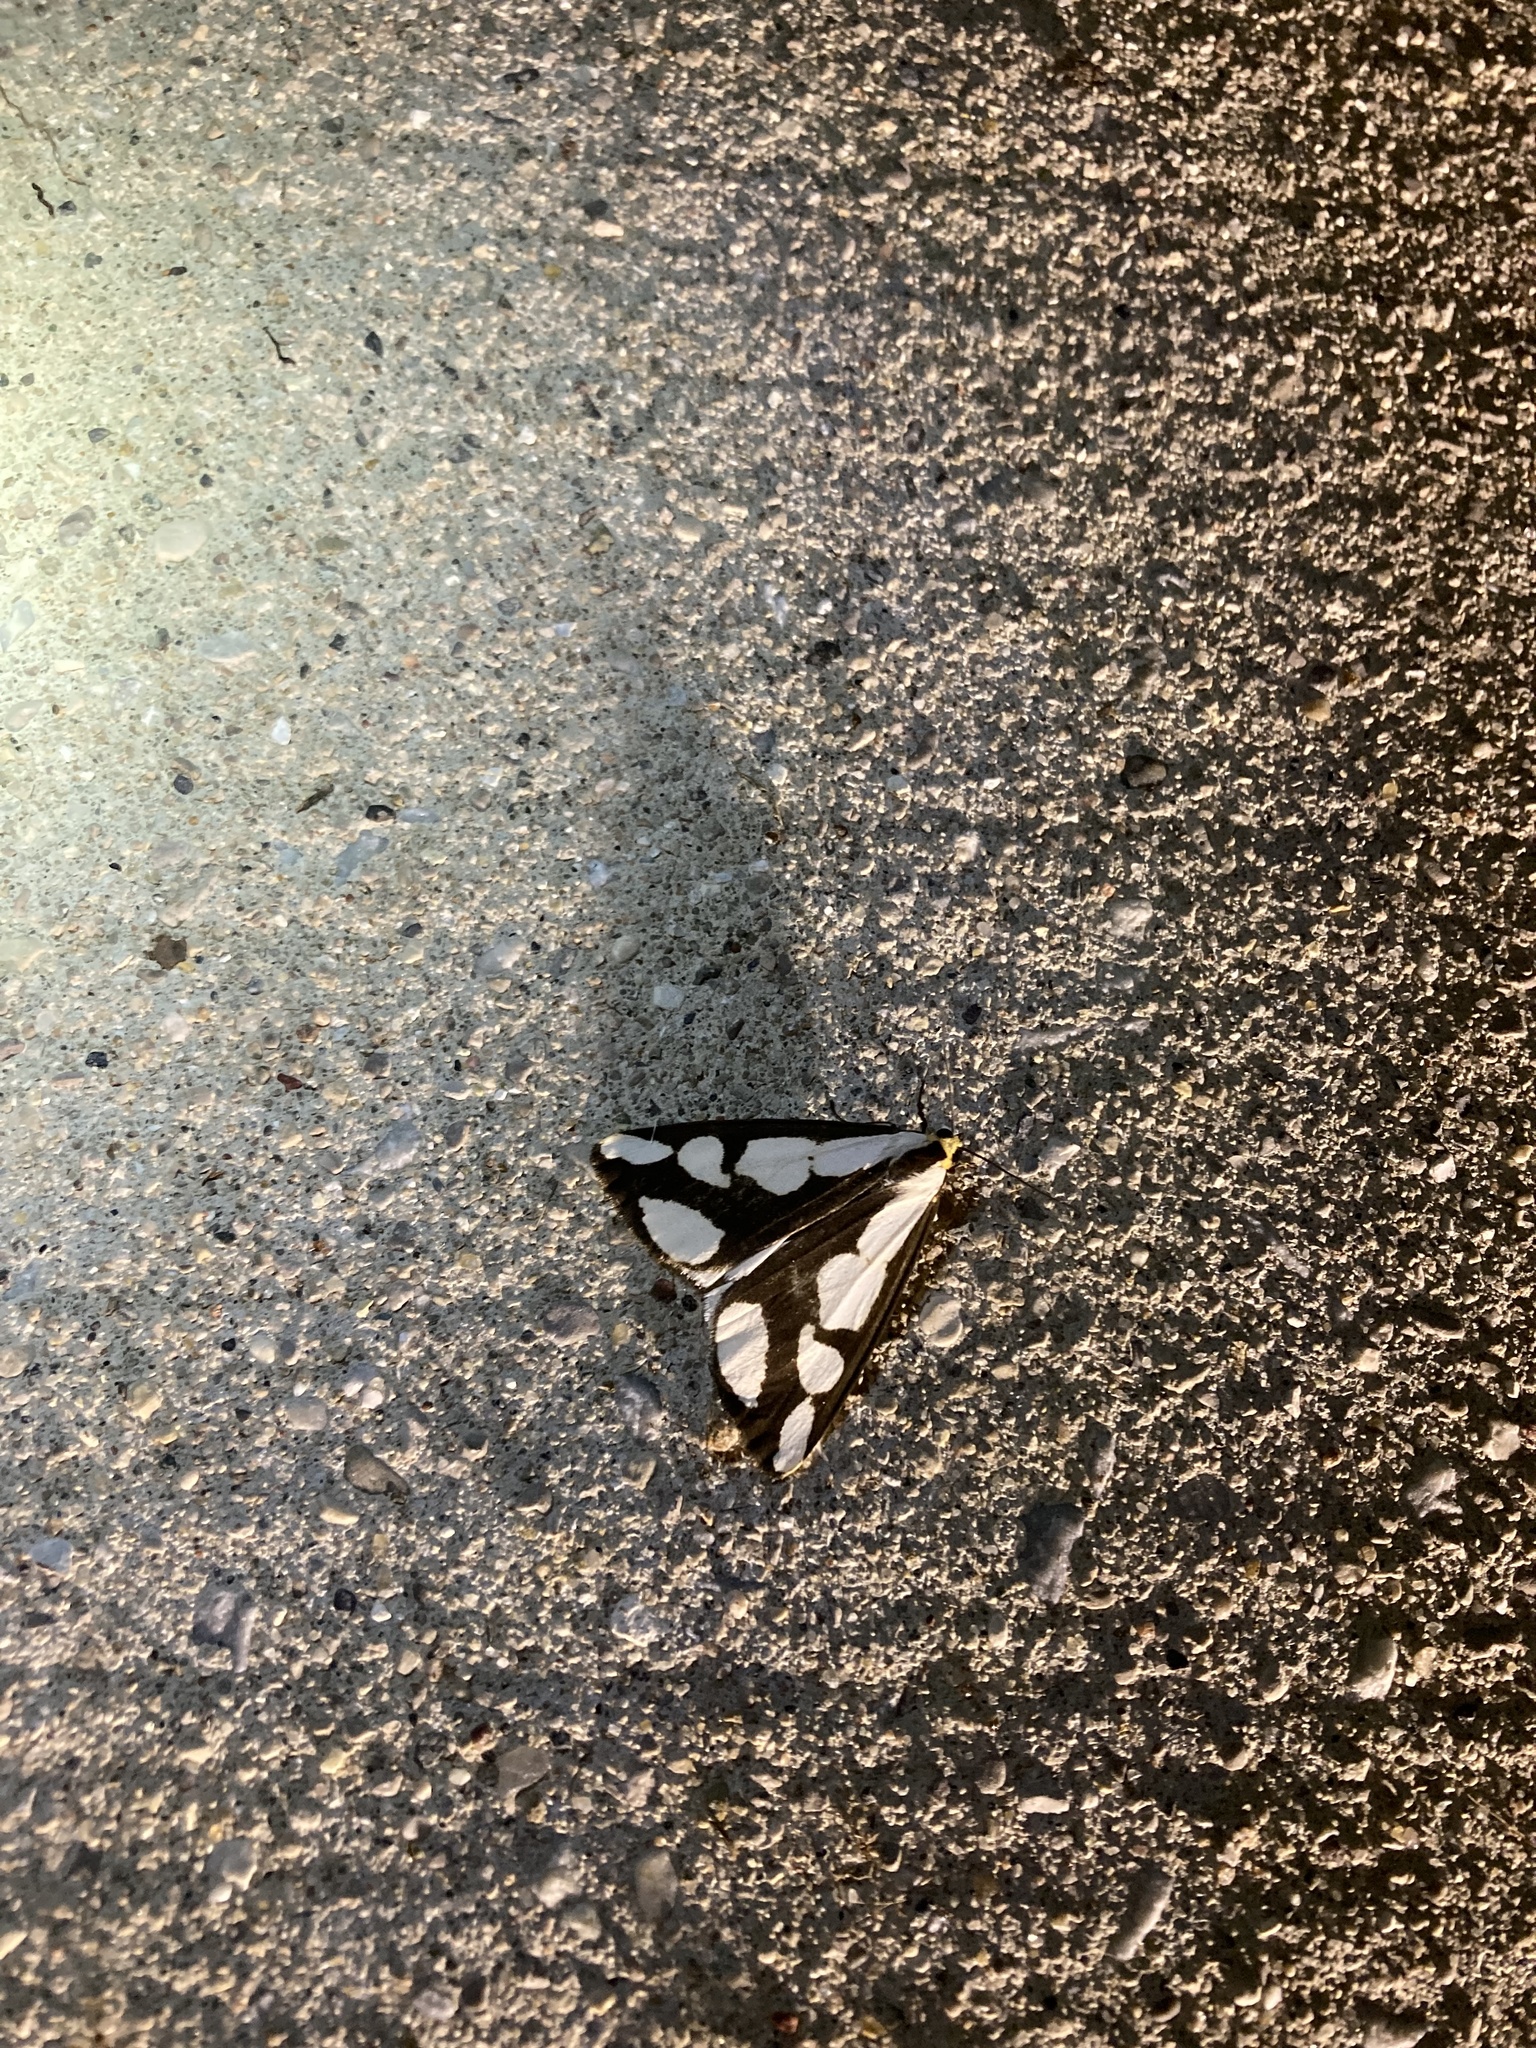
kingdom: Animalia
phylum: Arthropoda
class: Insecta
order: Lepidoptera
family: Erebidae
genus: Haploa
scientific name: Haploa lecontei
